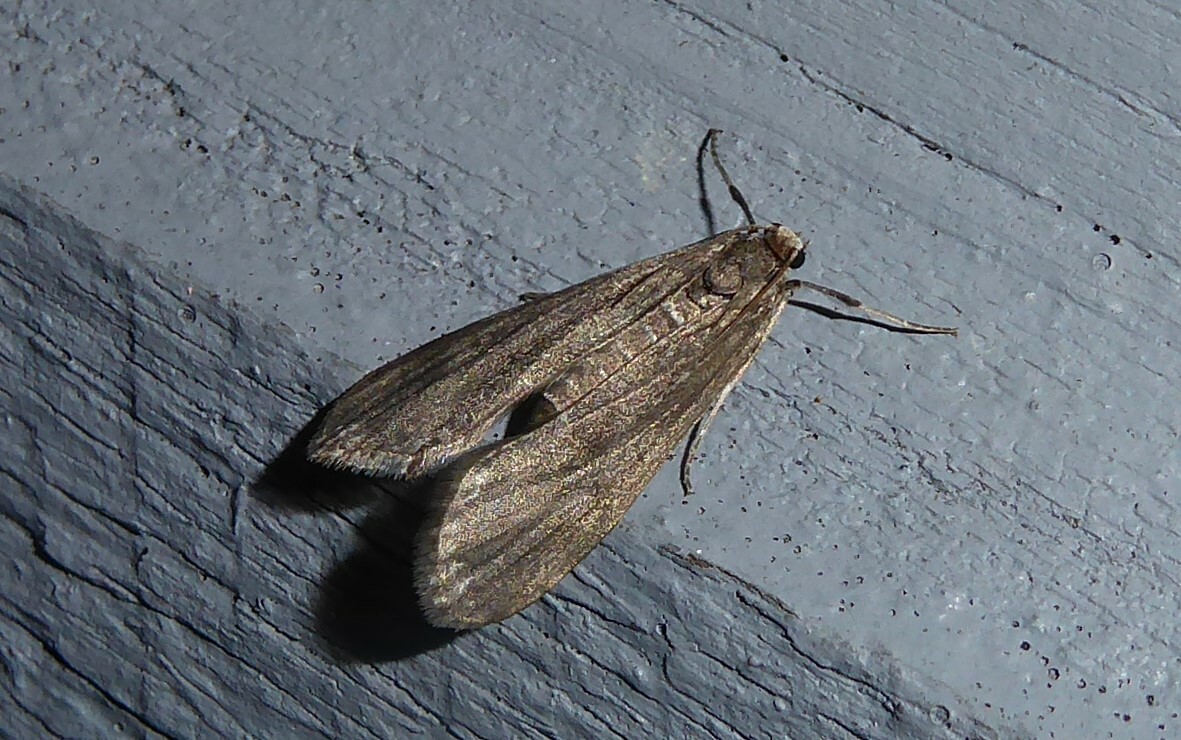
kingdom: Animalia
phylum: Arthropoda
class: Insecta
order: Lepidoptera
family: Crambidae
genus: Hygraula
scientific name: Hygraula nitens
